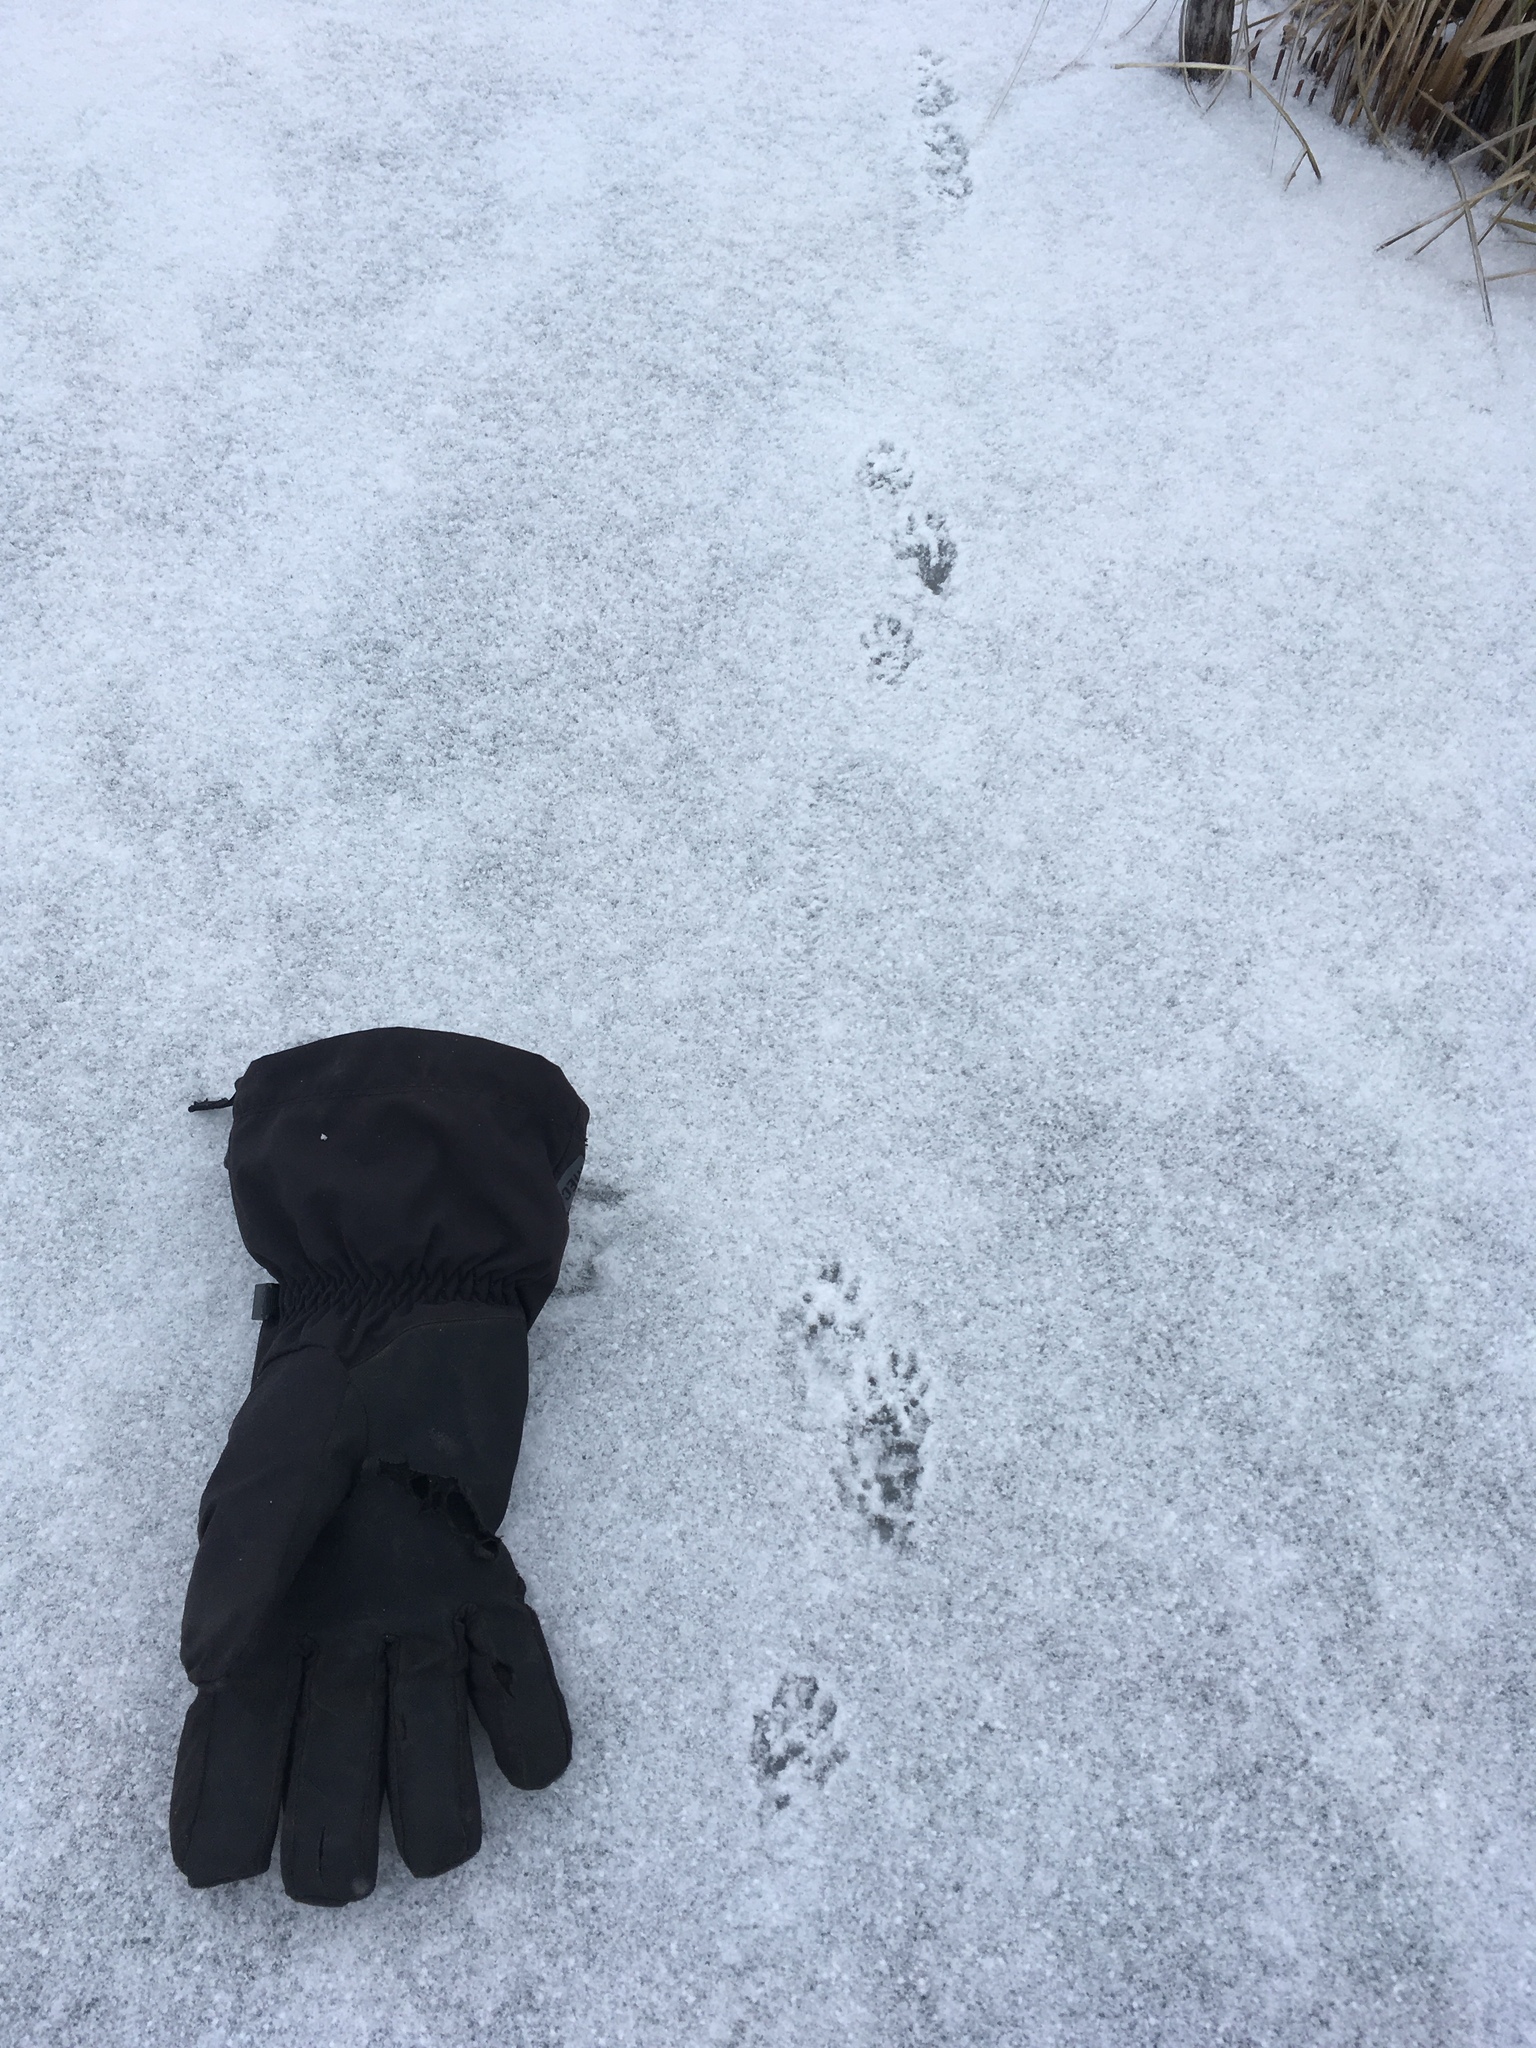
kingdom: Animalia
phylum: Chordata
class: Mammalia
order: Carnivora
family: Mustelidae
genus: Mustela
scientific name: Mustela
